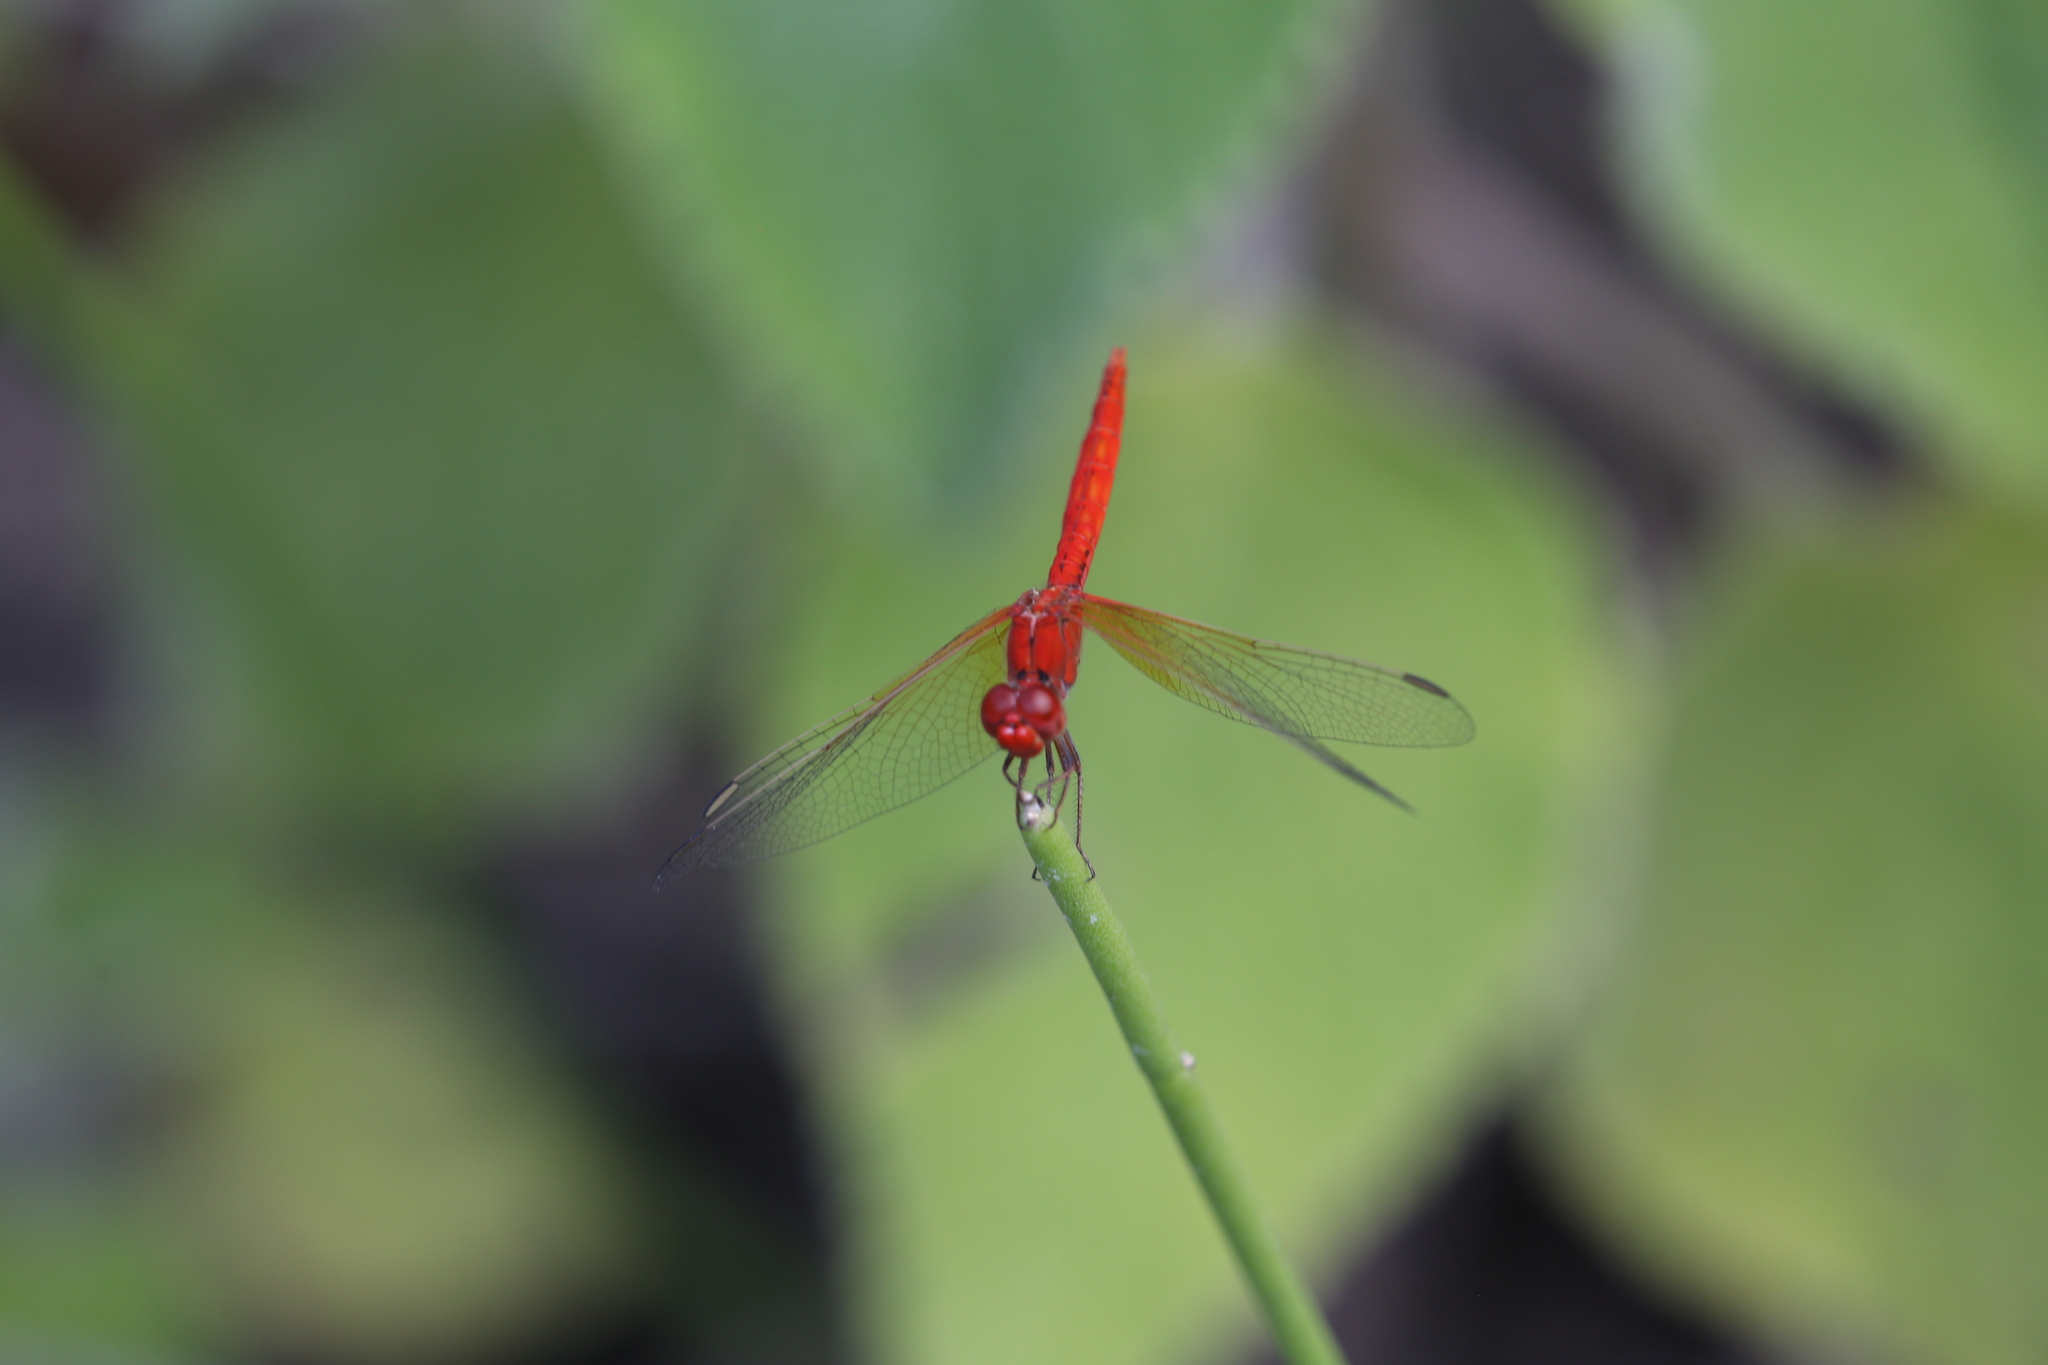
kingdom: Animalia
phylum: Arthropoda
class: Insecta
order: Odonata
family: Libellulidae
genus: Diplacodes
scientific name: Diplacodes haematodes
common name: Scarlet percher
